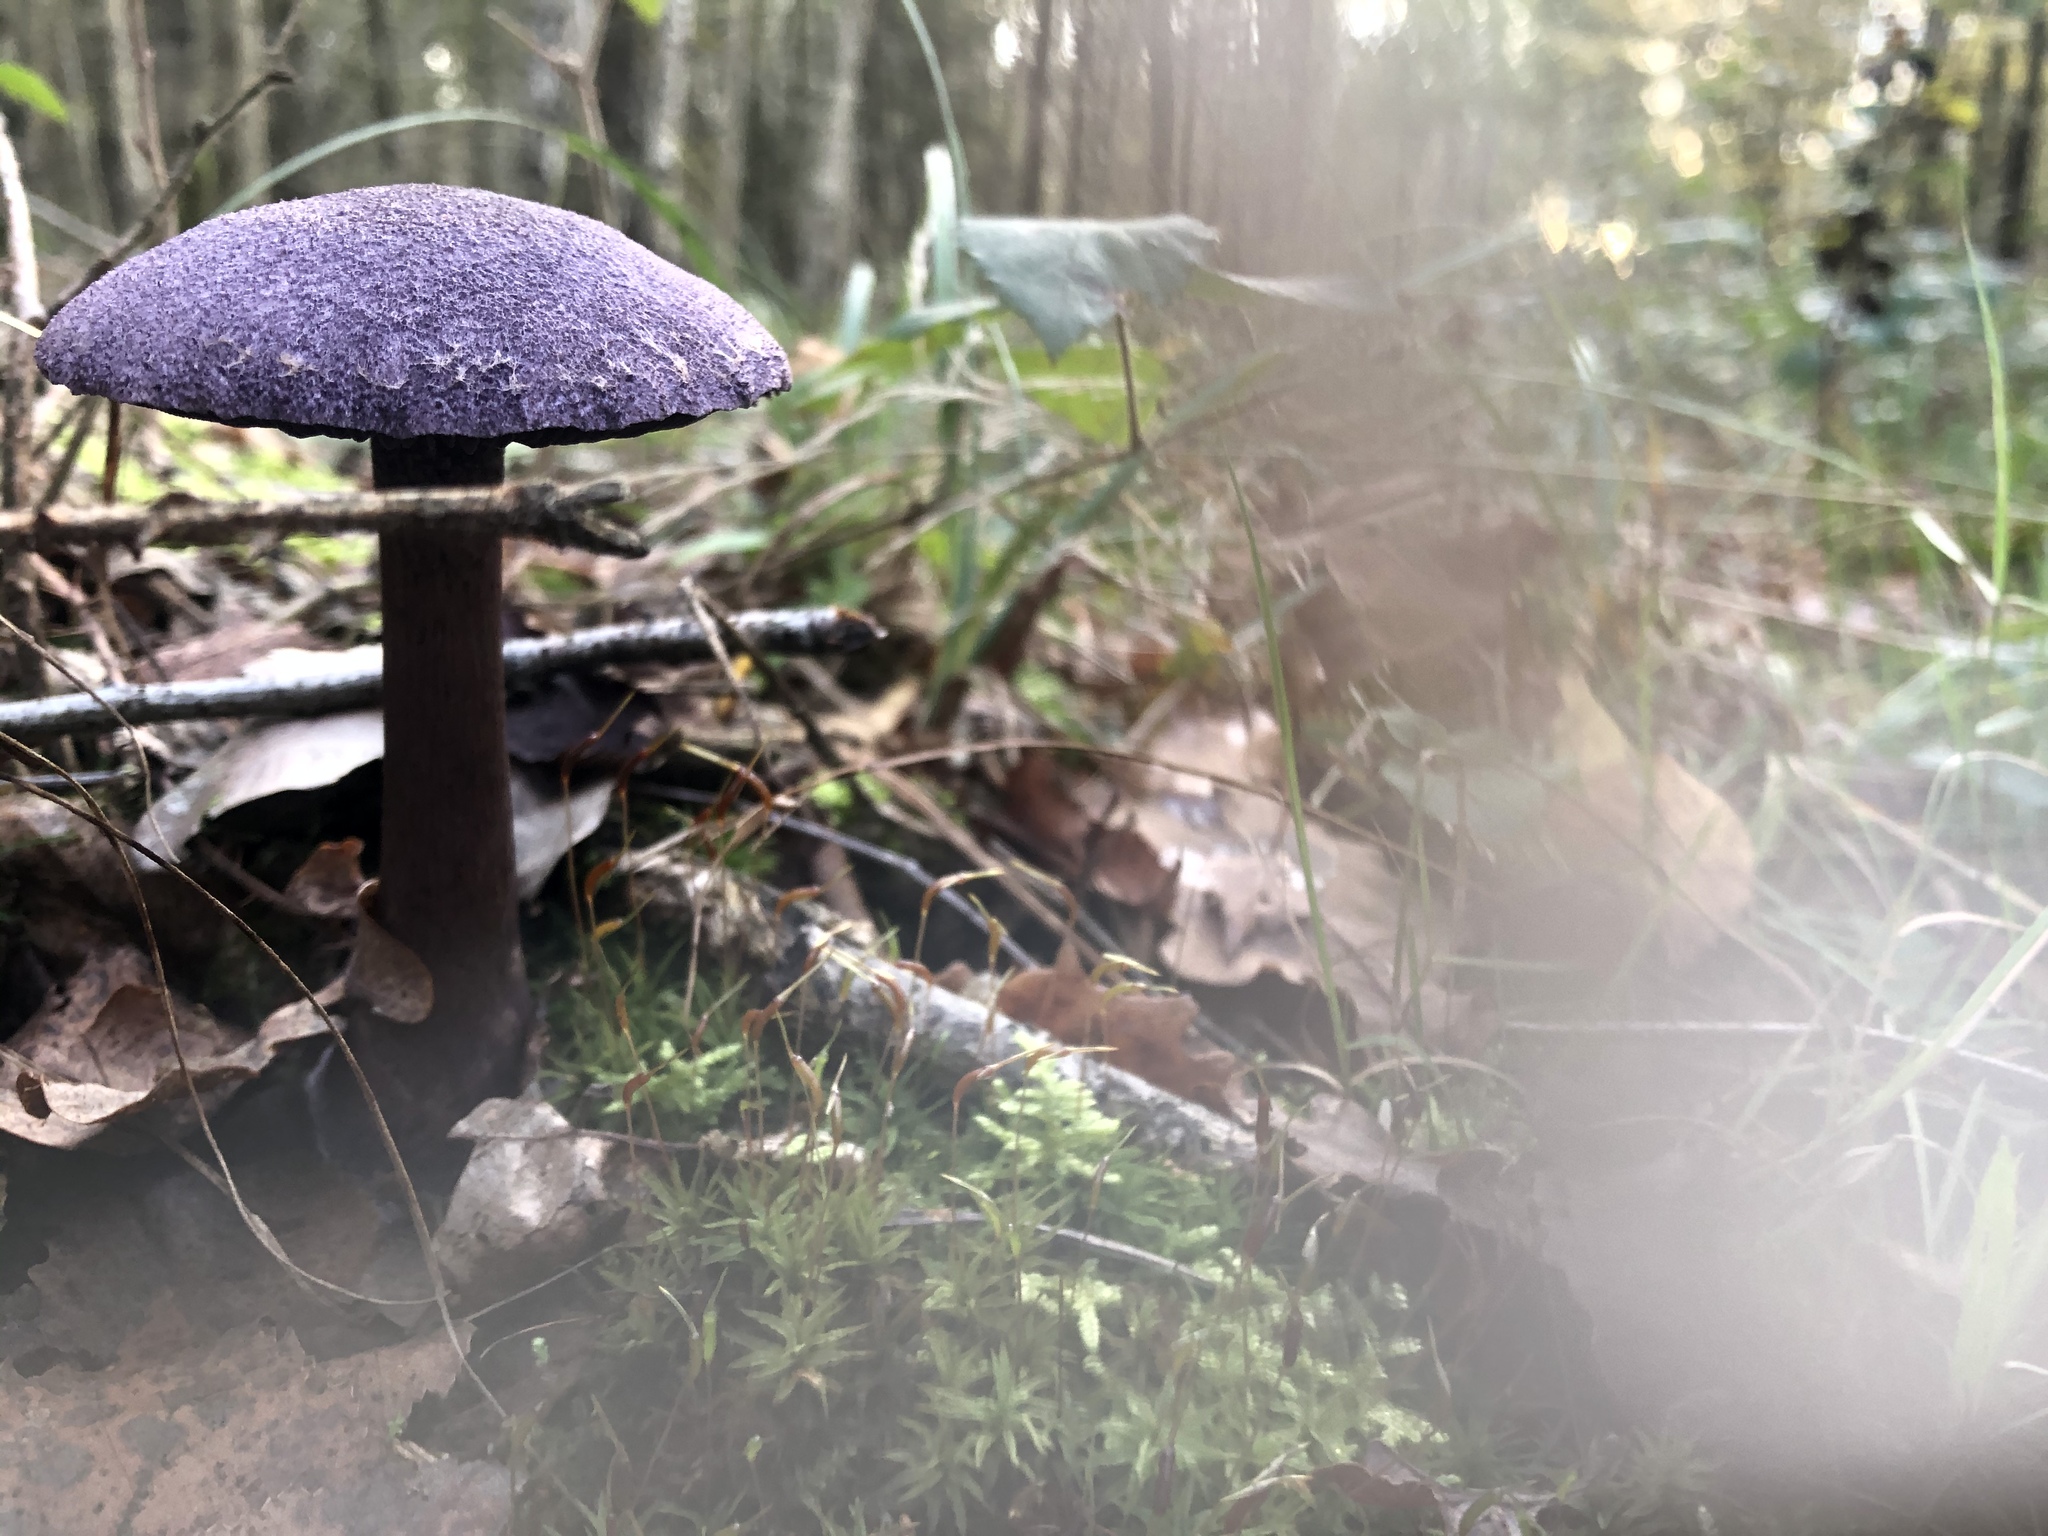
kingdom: Fungi
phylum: Basidiomycota
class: Agaricomycetes
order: Agaricales
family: Cortinariaceae
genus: Cortinarius
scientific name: Cortinarius violaceus
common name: Violet webcap
